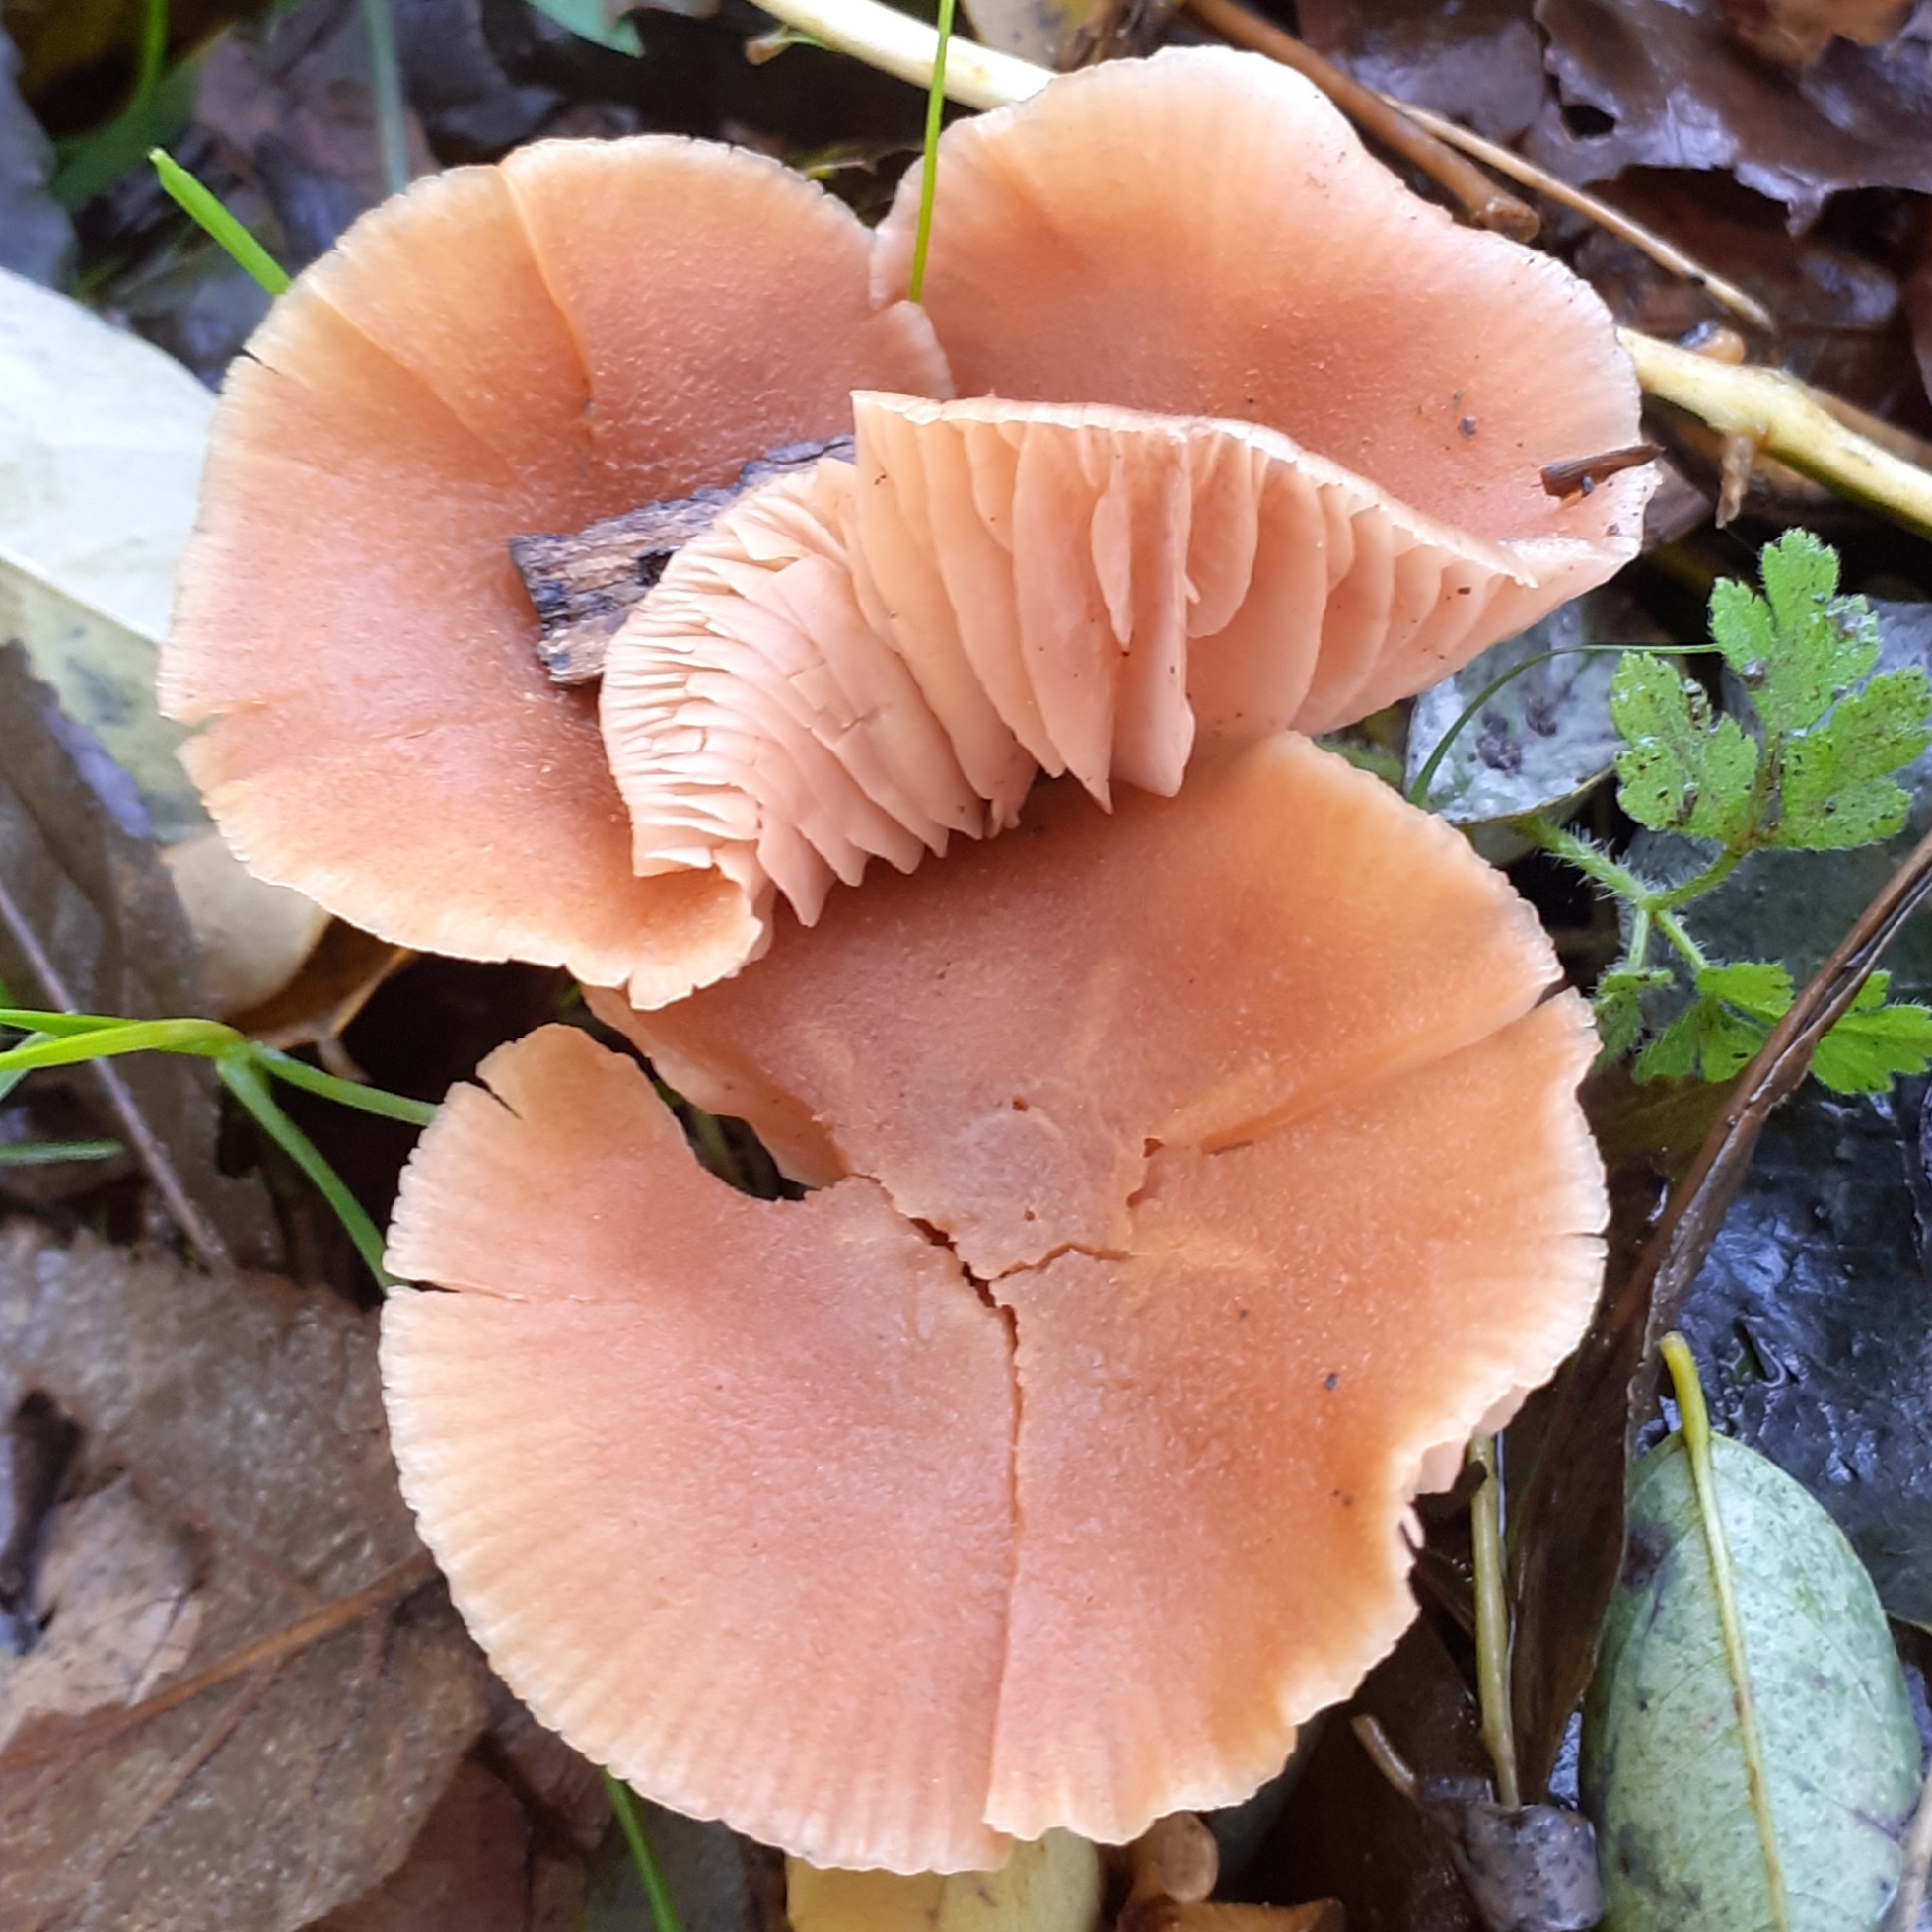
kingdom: Fungi
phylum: Basidiomycota
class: Agaricomycetes
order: Agaricales
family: Hydnangiaceae
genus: Laccaria
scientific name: Laccaria laccata
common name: Deceiver
